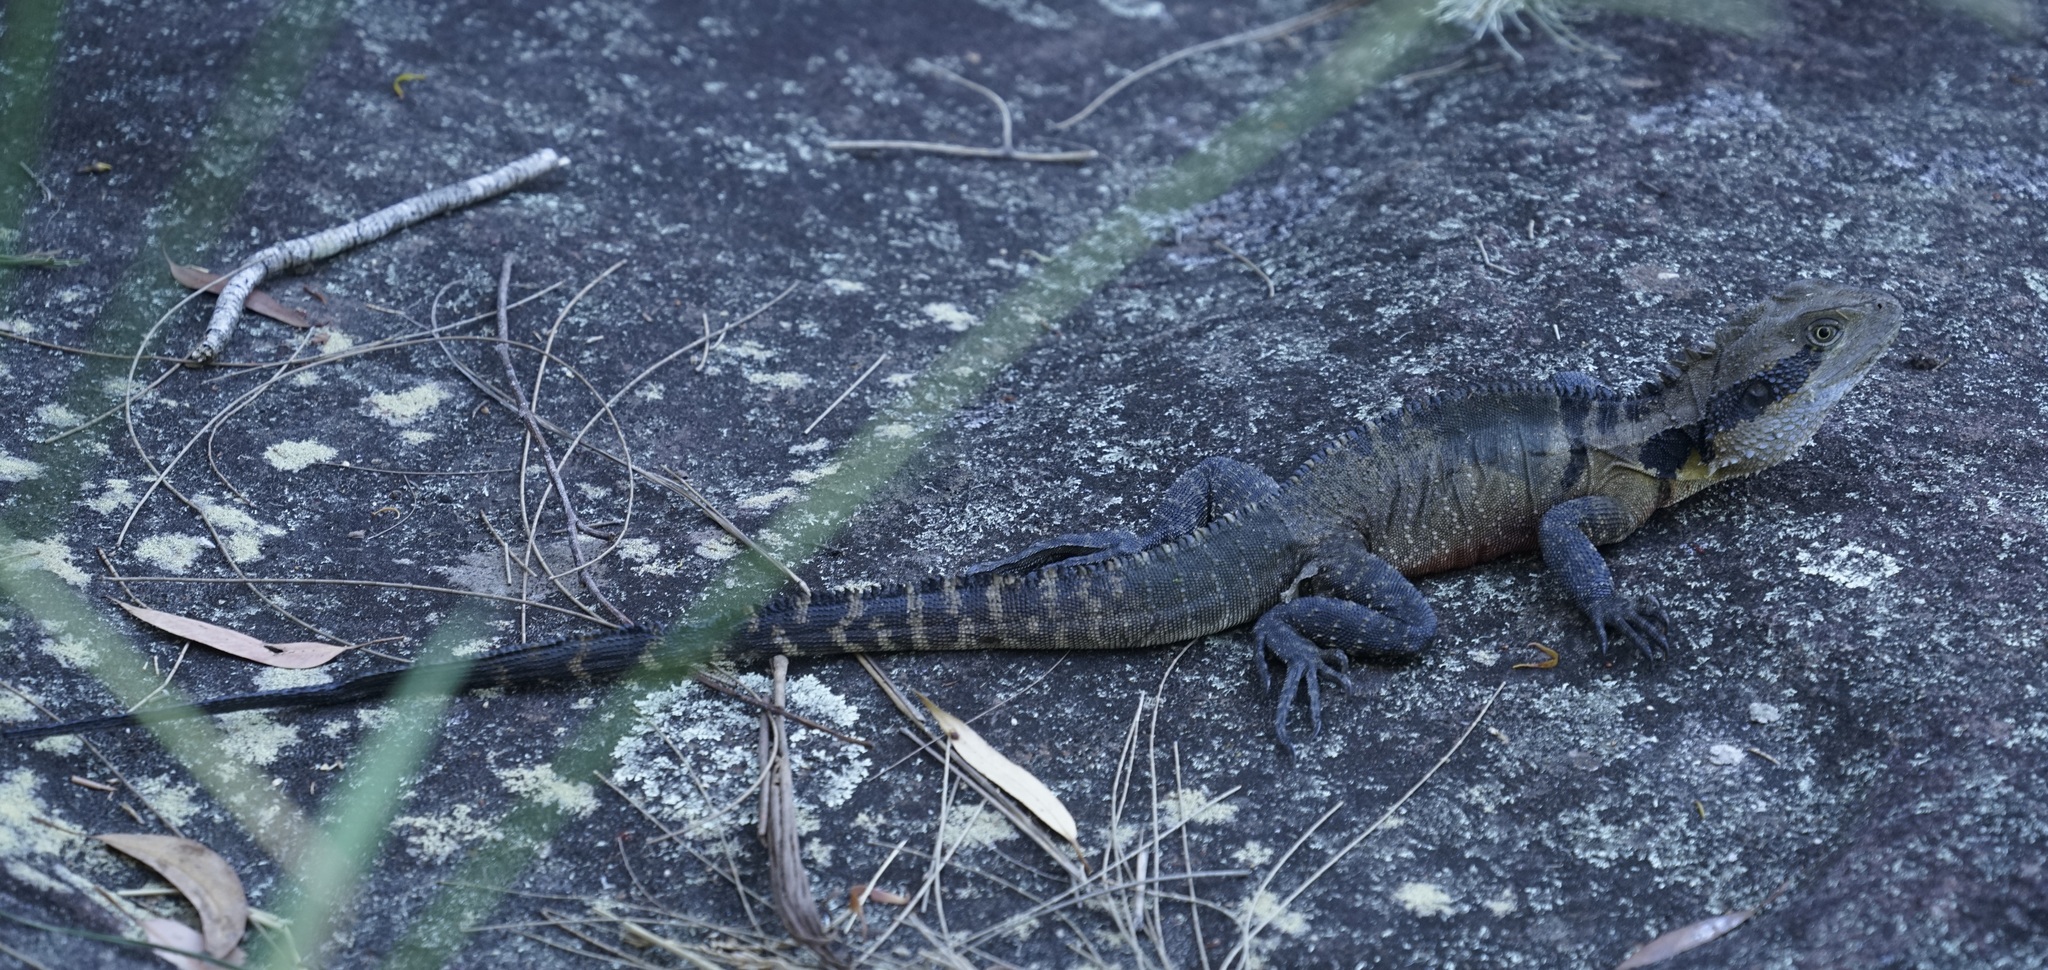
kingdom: Animalia
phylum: Chordata
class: Squamata
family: Agamidae
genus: Intellagama
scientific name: Intellagama lesueurii
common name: Eastern water dragon
